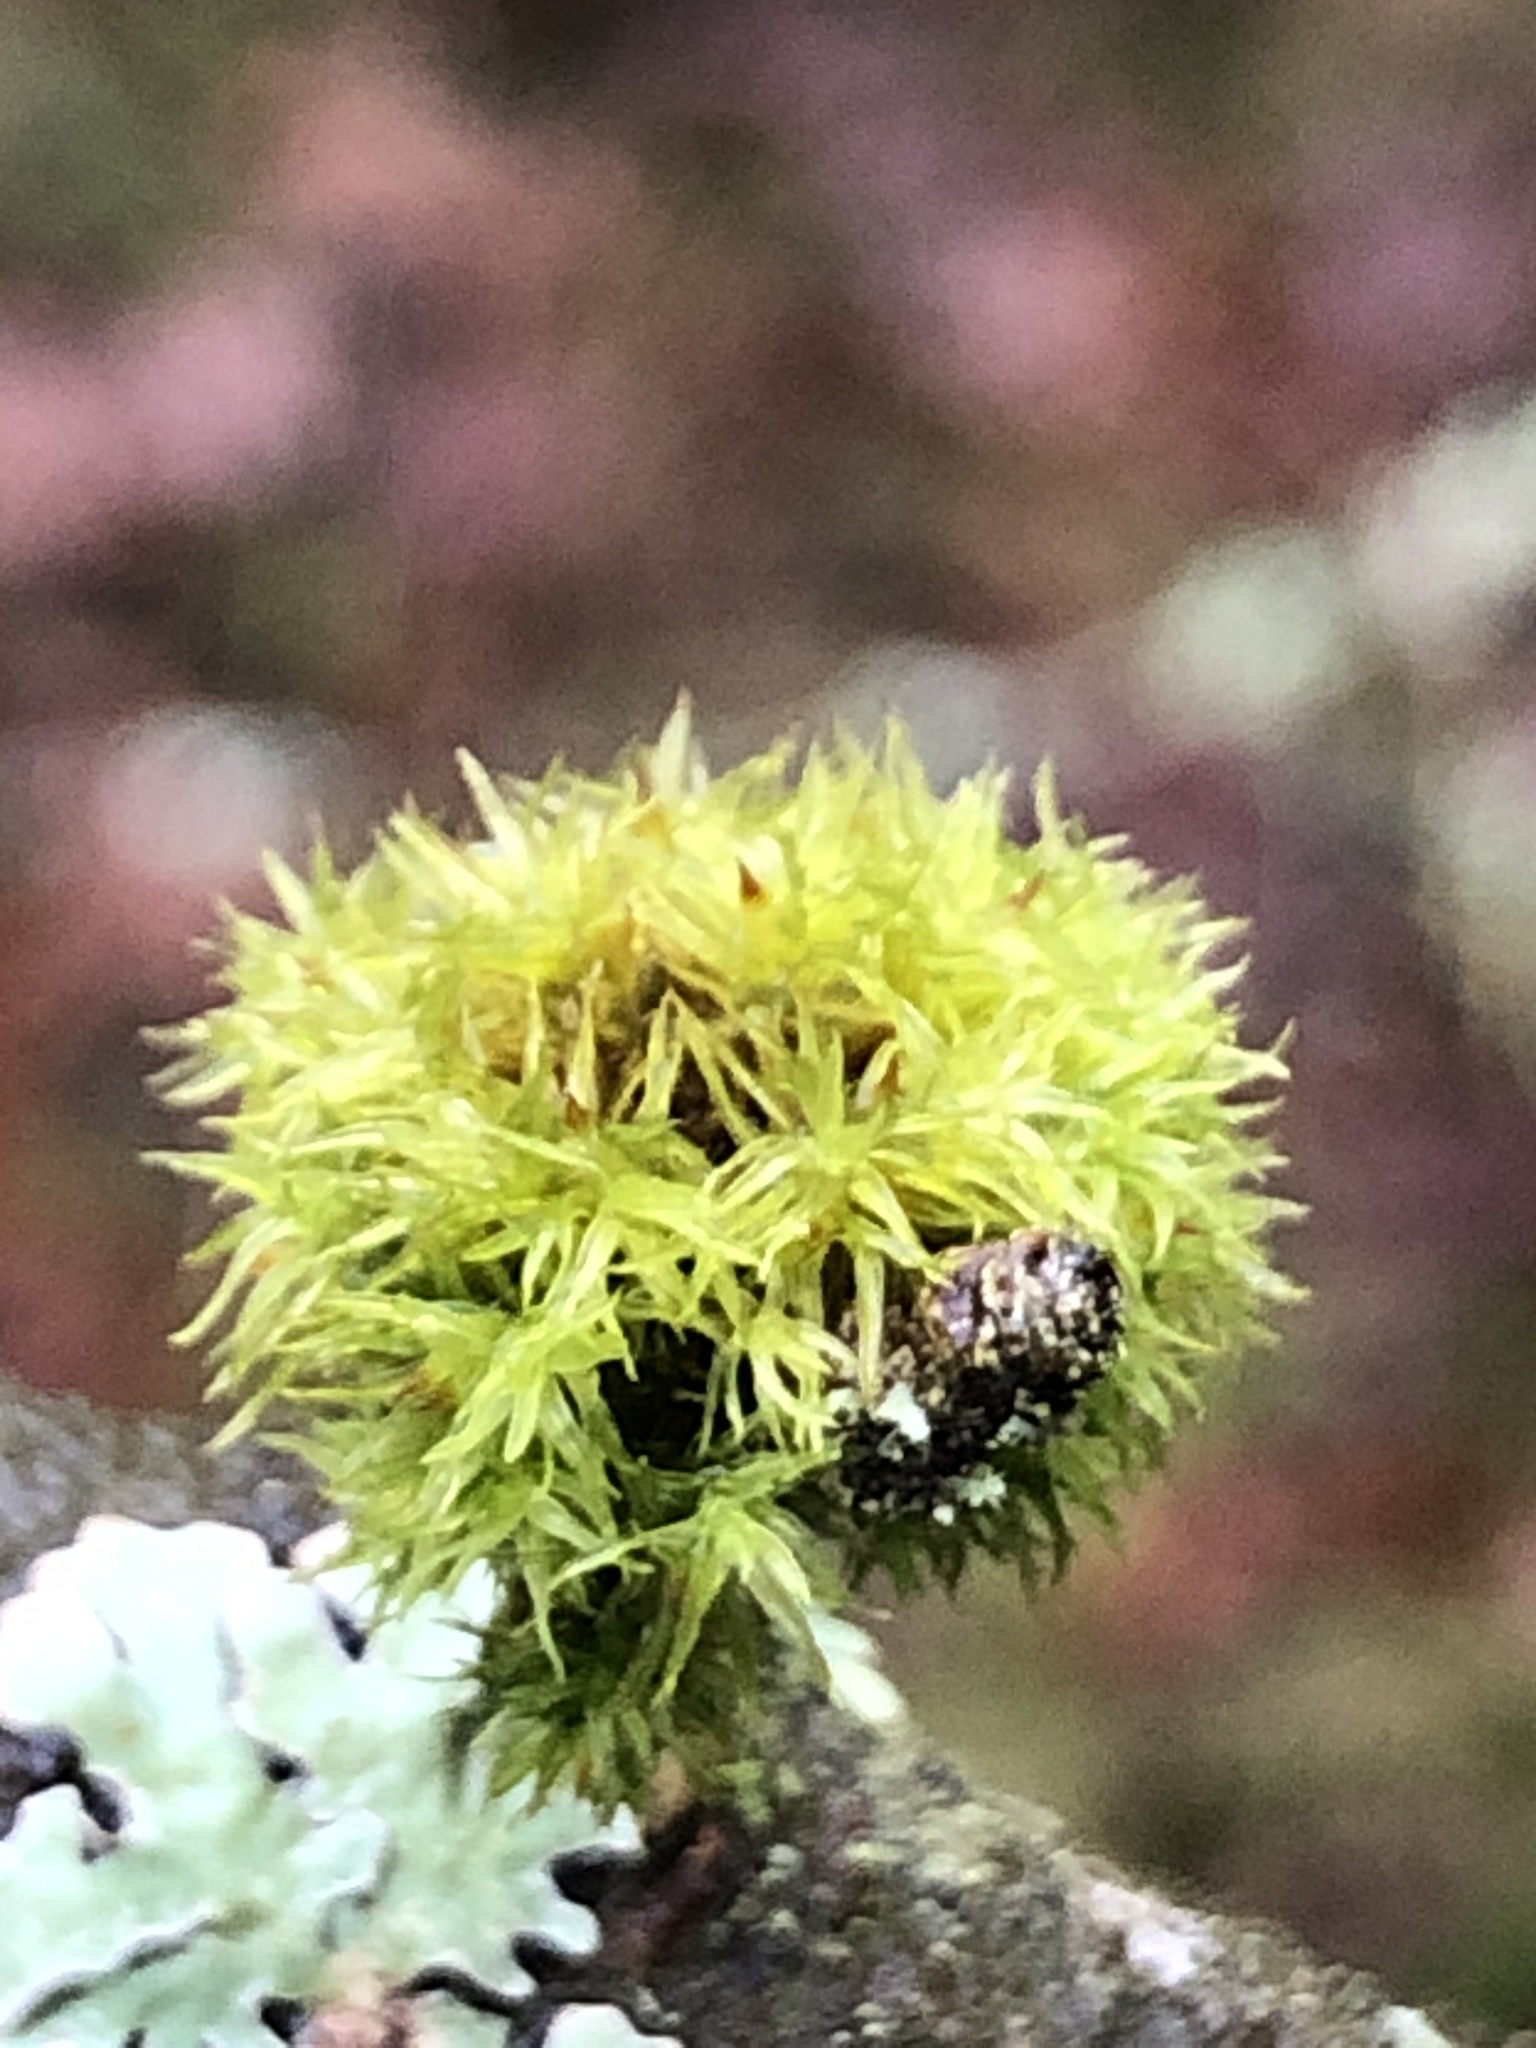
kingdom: Plantae
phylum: Bryophyta
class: Bryopsida
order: Orthotrichales
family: Orthotrichaceae
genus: Orthotrichum
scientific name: Orthotrichum pulchellum
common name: Elegant bristle-moss
